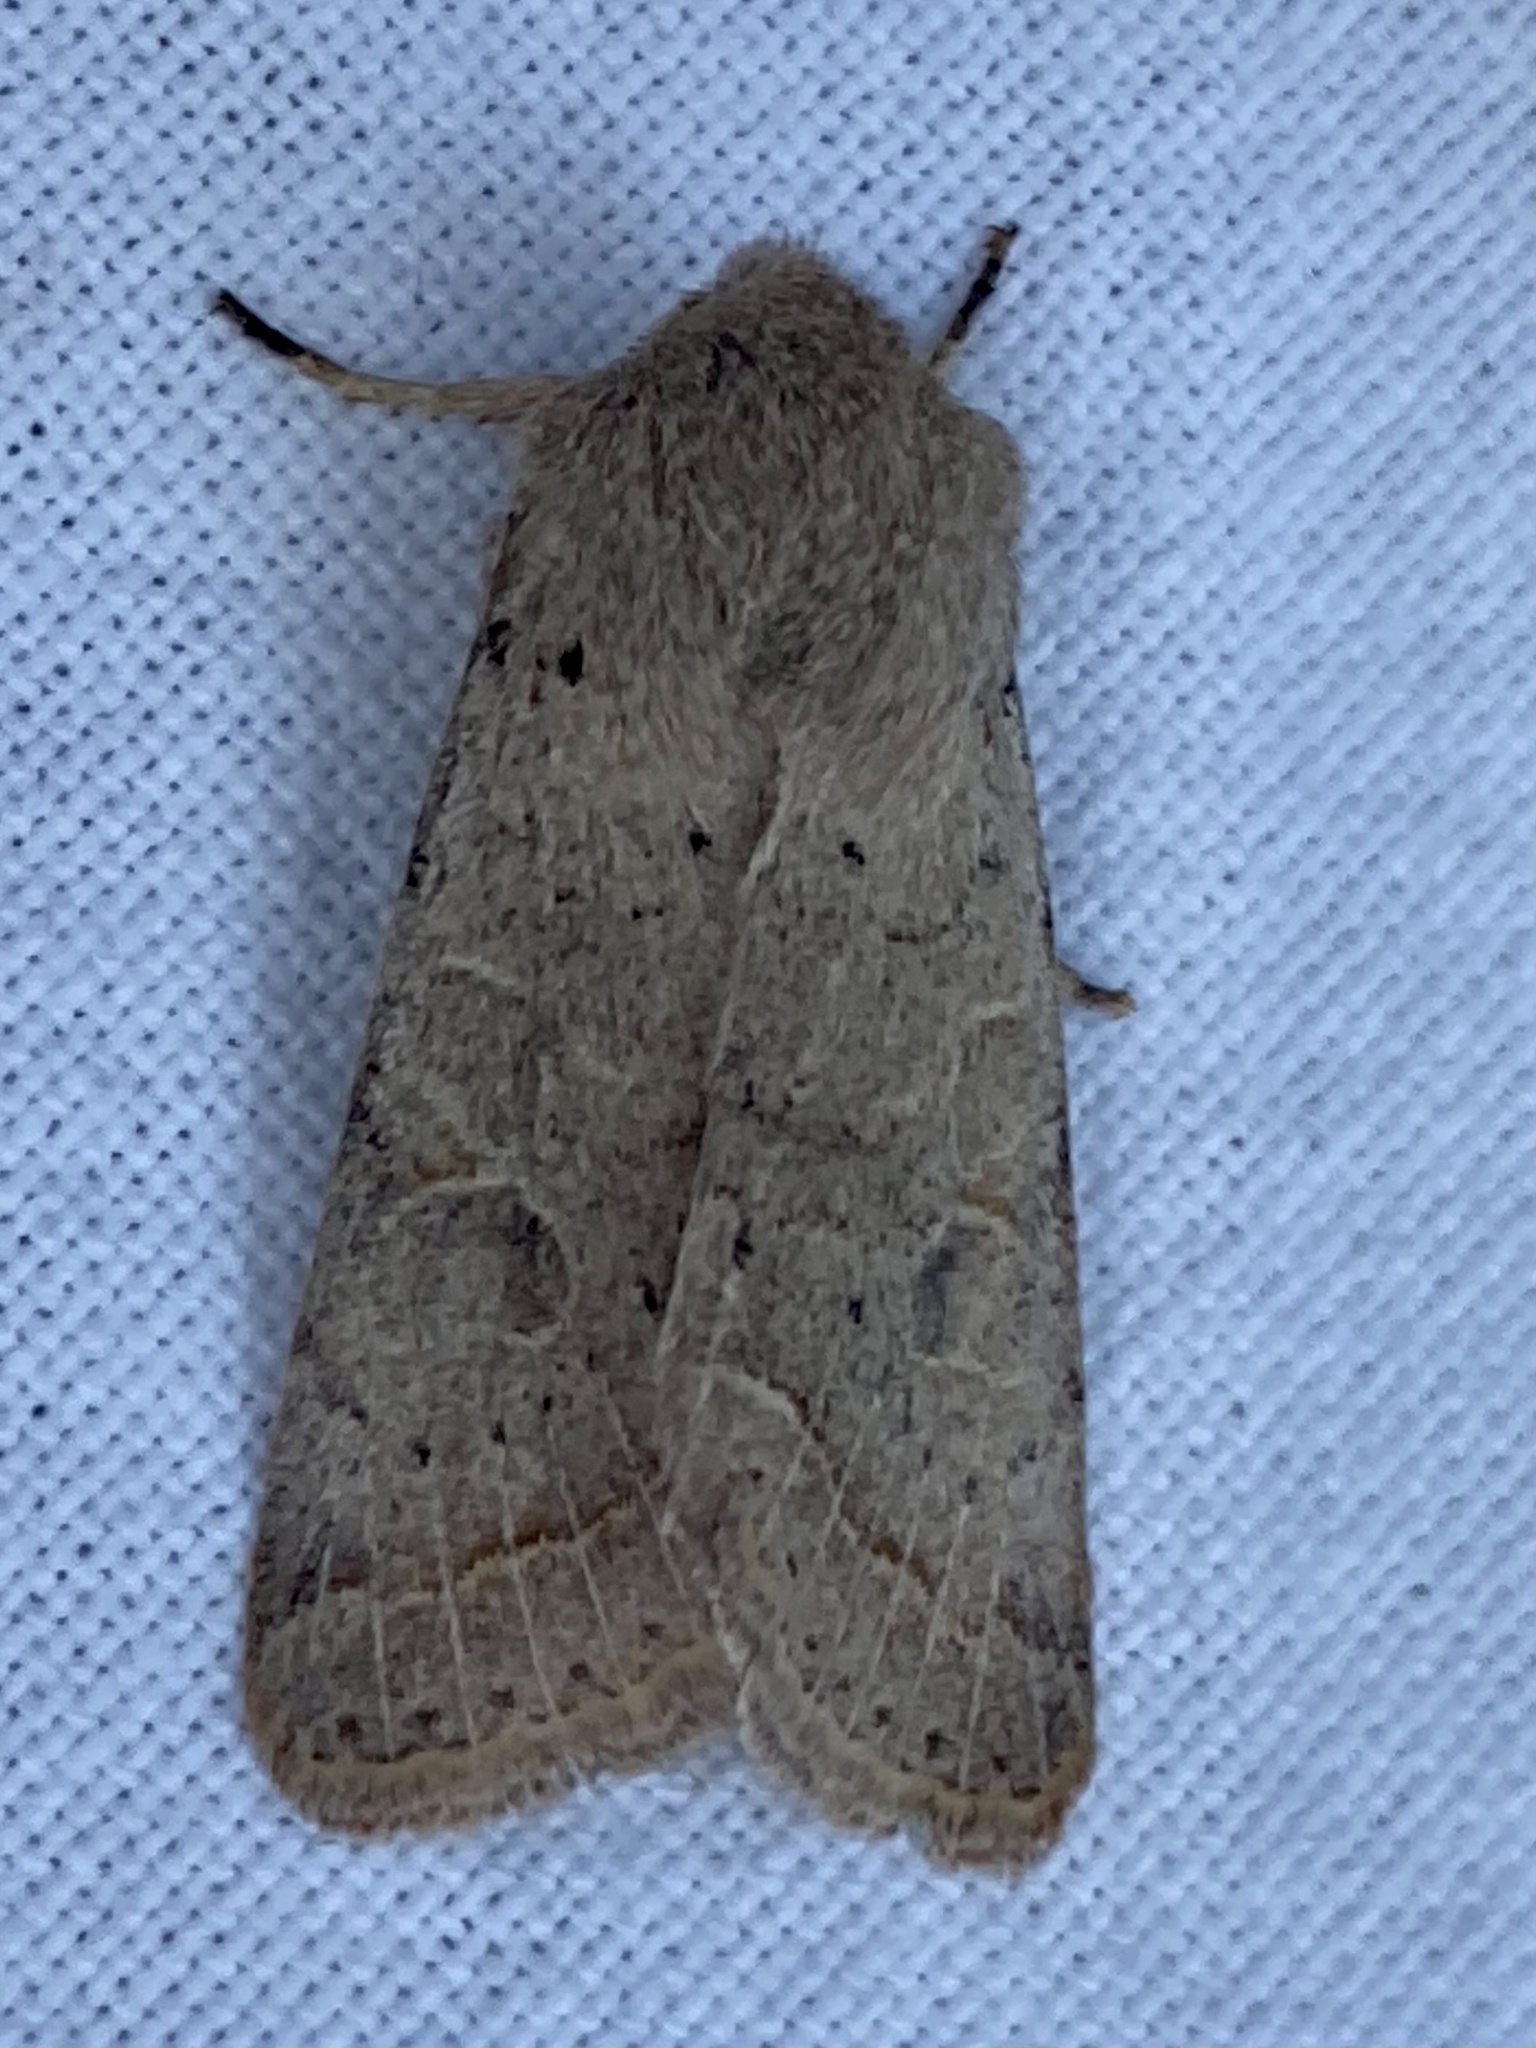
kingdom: Animalia
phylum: Arthropoda
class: Insecta
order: Lepidoptera
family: Noctuidae
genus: Orthosia
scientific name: Orthosia cerasi
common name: Common quaker
